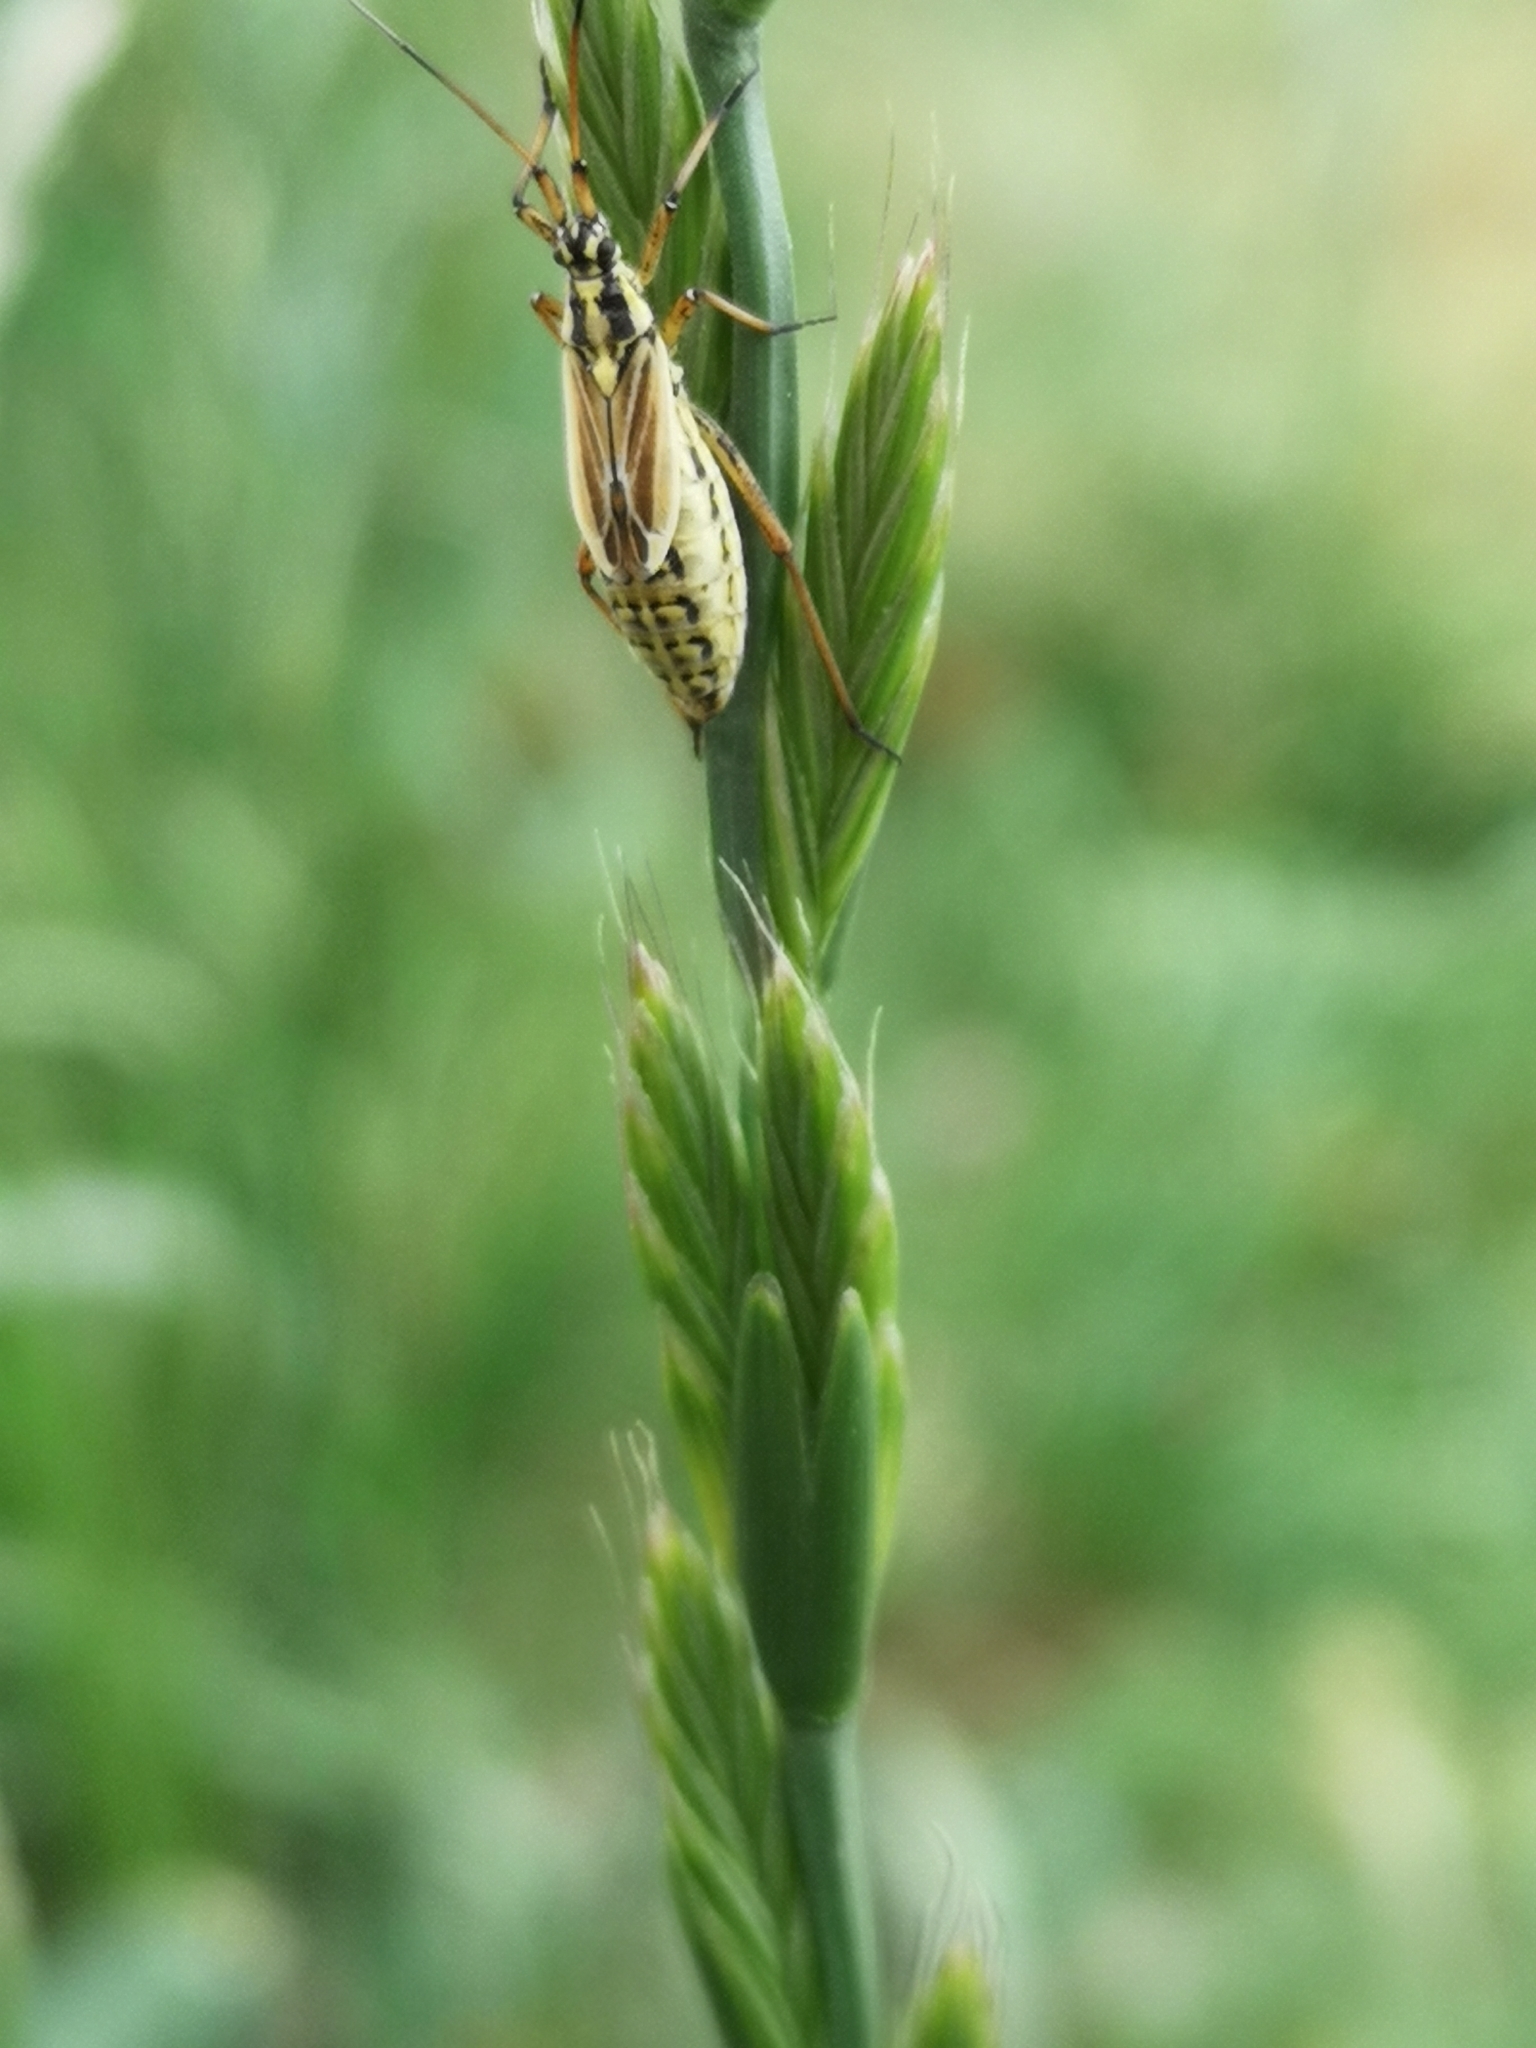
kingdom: Animalia
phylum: Arthropoda
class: Insecta
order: Hemiptera
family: Miridae
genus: Leptopterna
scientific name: Leptopterna dolabrata
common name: Meadow plant bug
